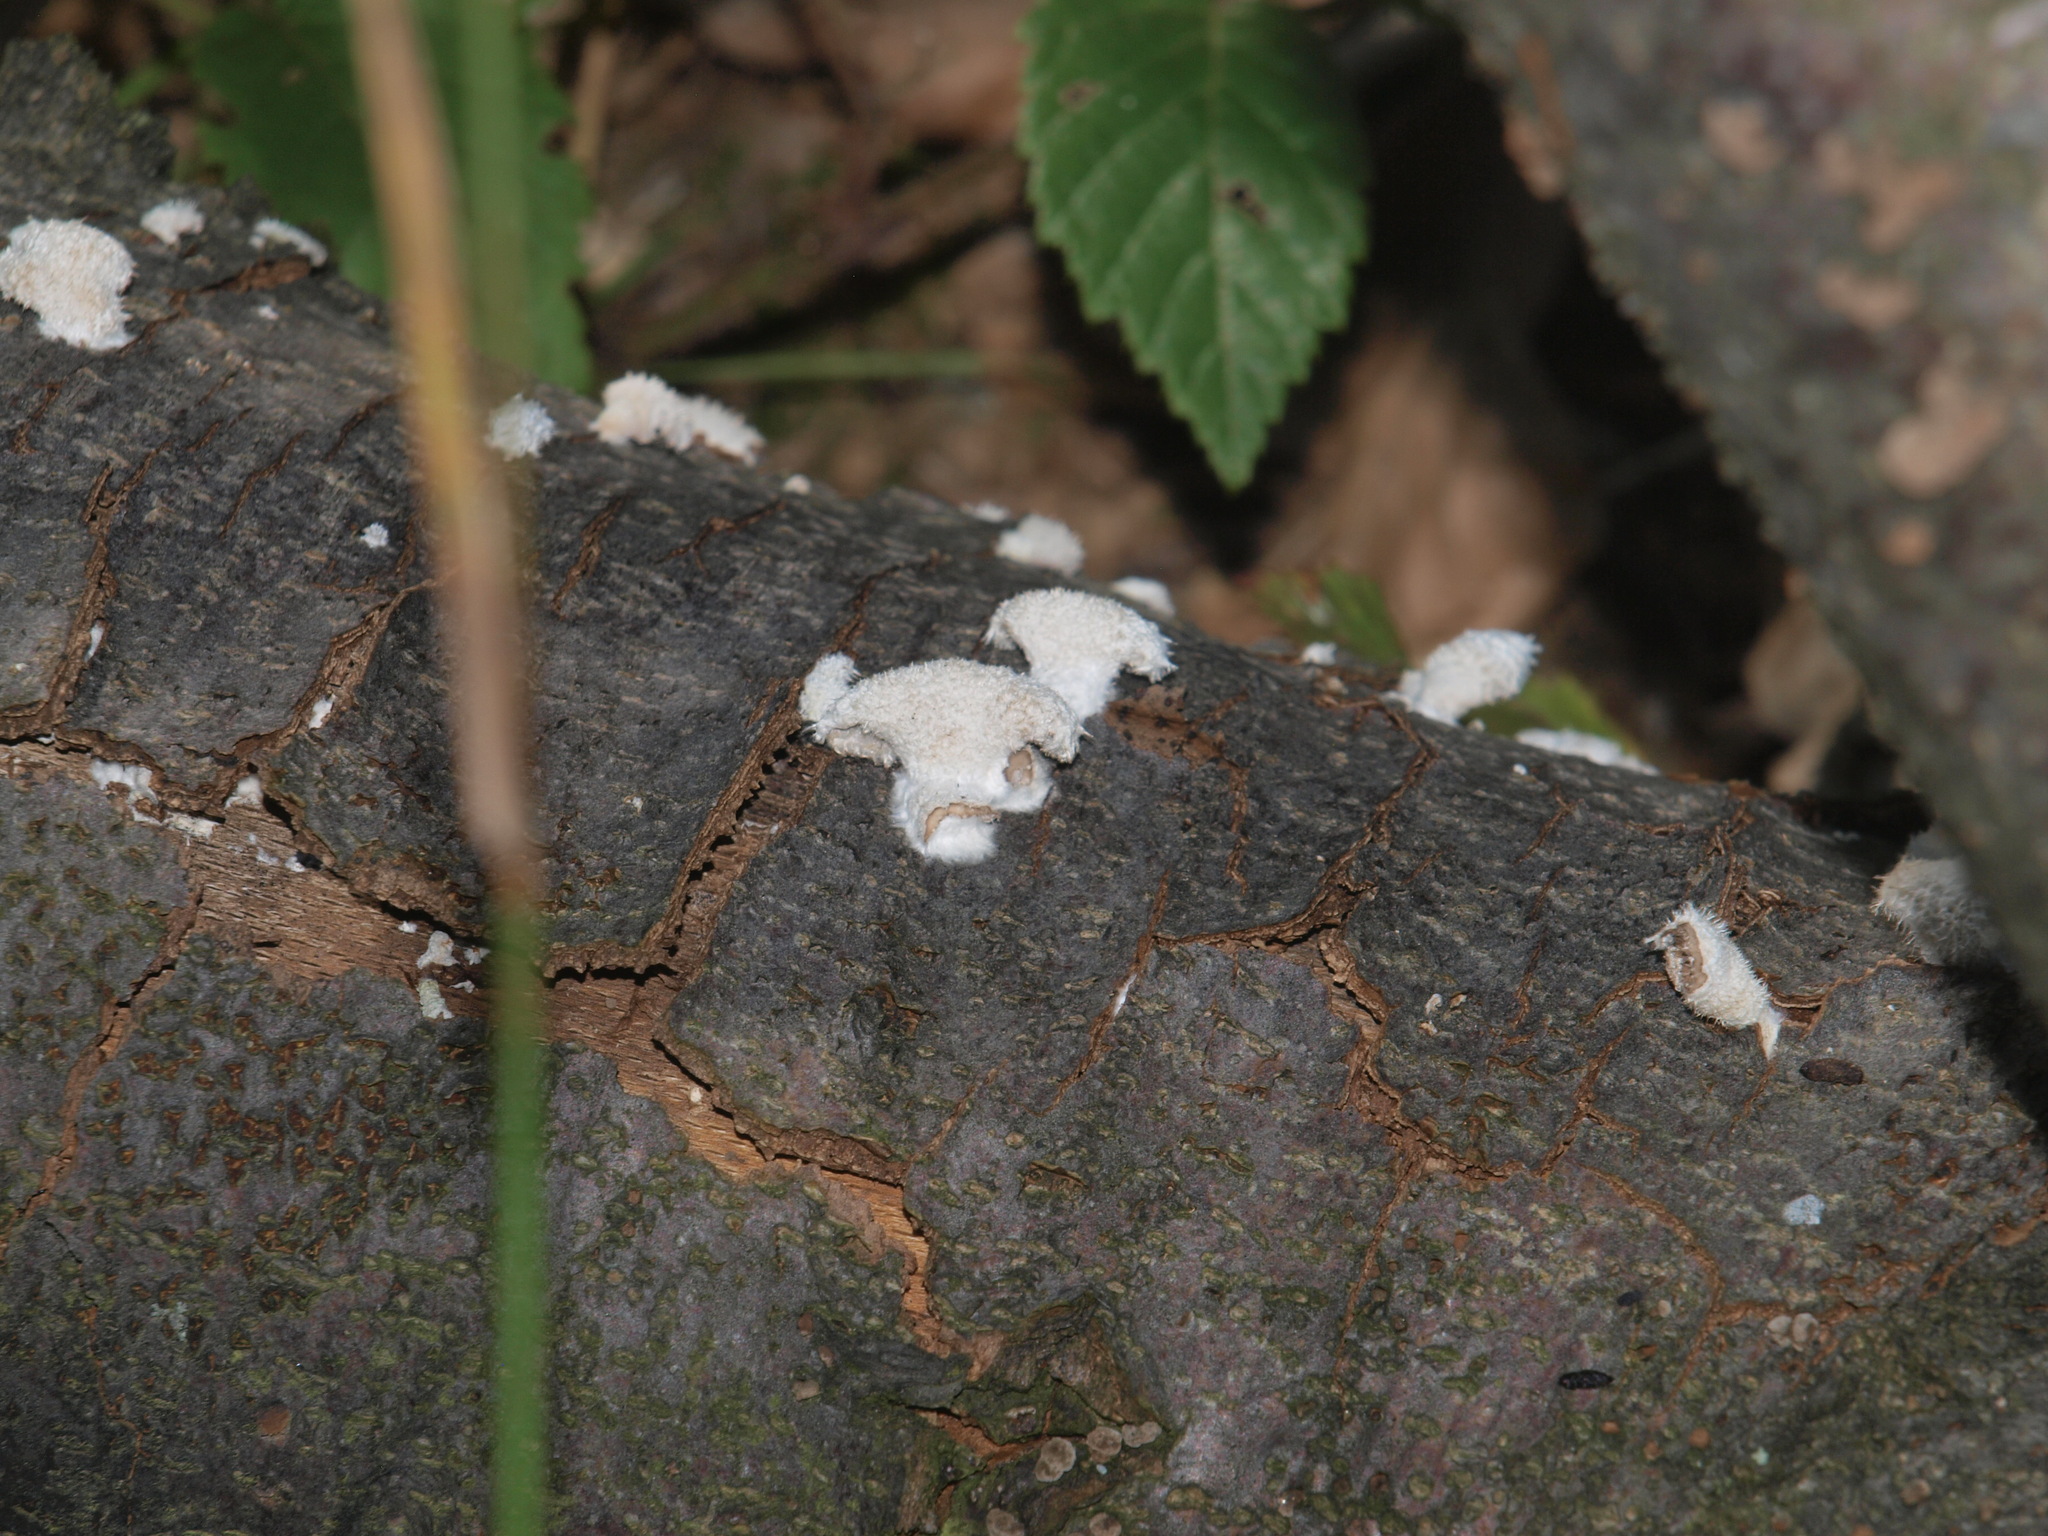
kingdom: Fungi
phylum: Basidiomycota
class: Agaricomycetes
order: Agaricales
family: Schizophyllaceae
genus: Schizophyllum
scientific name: Schizophyllum commune
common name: Common porecrust
